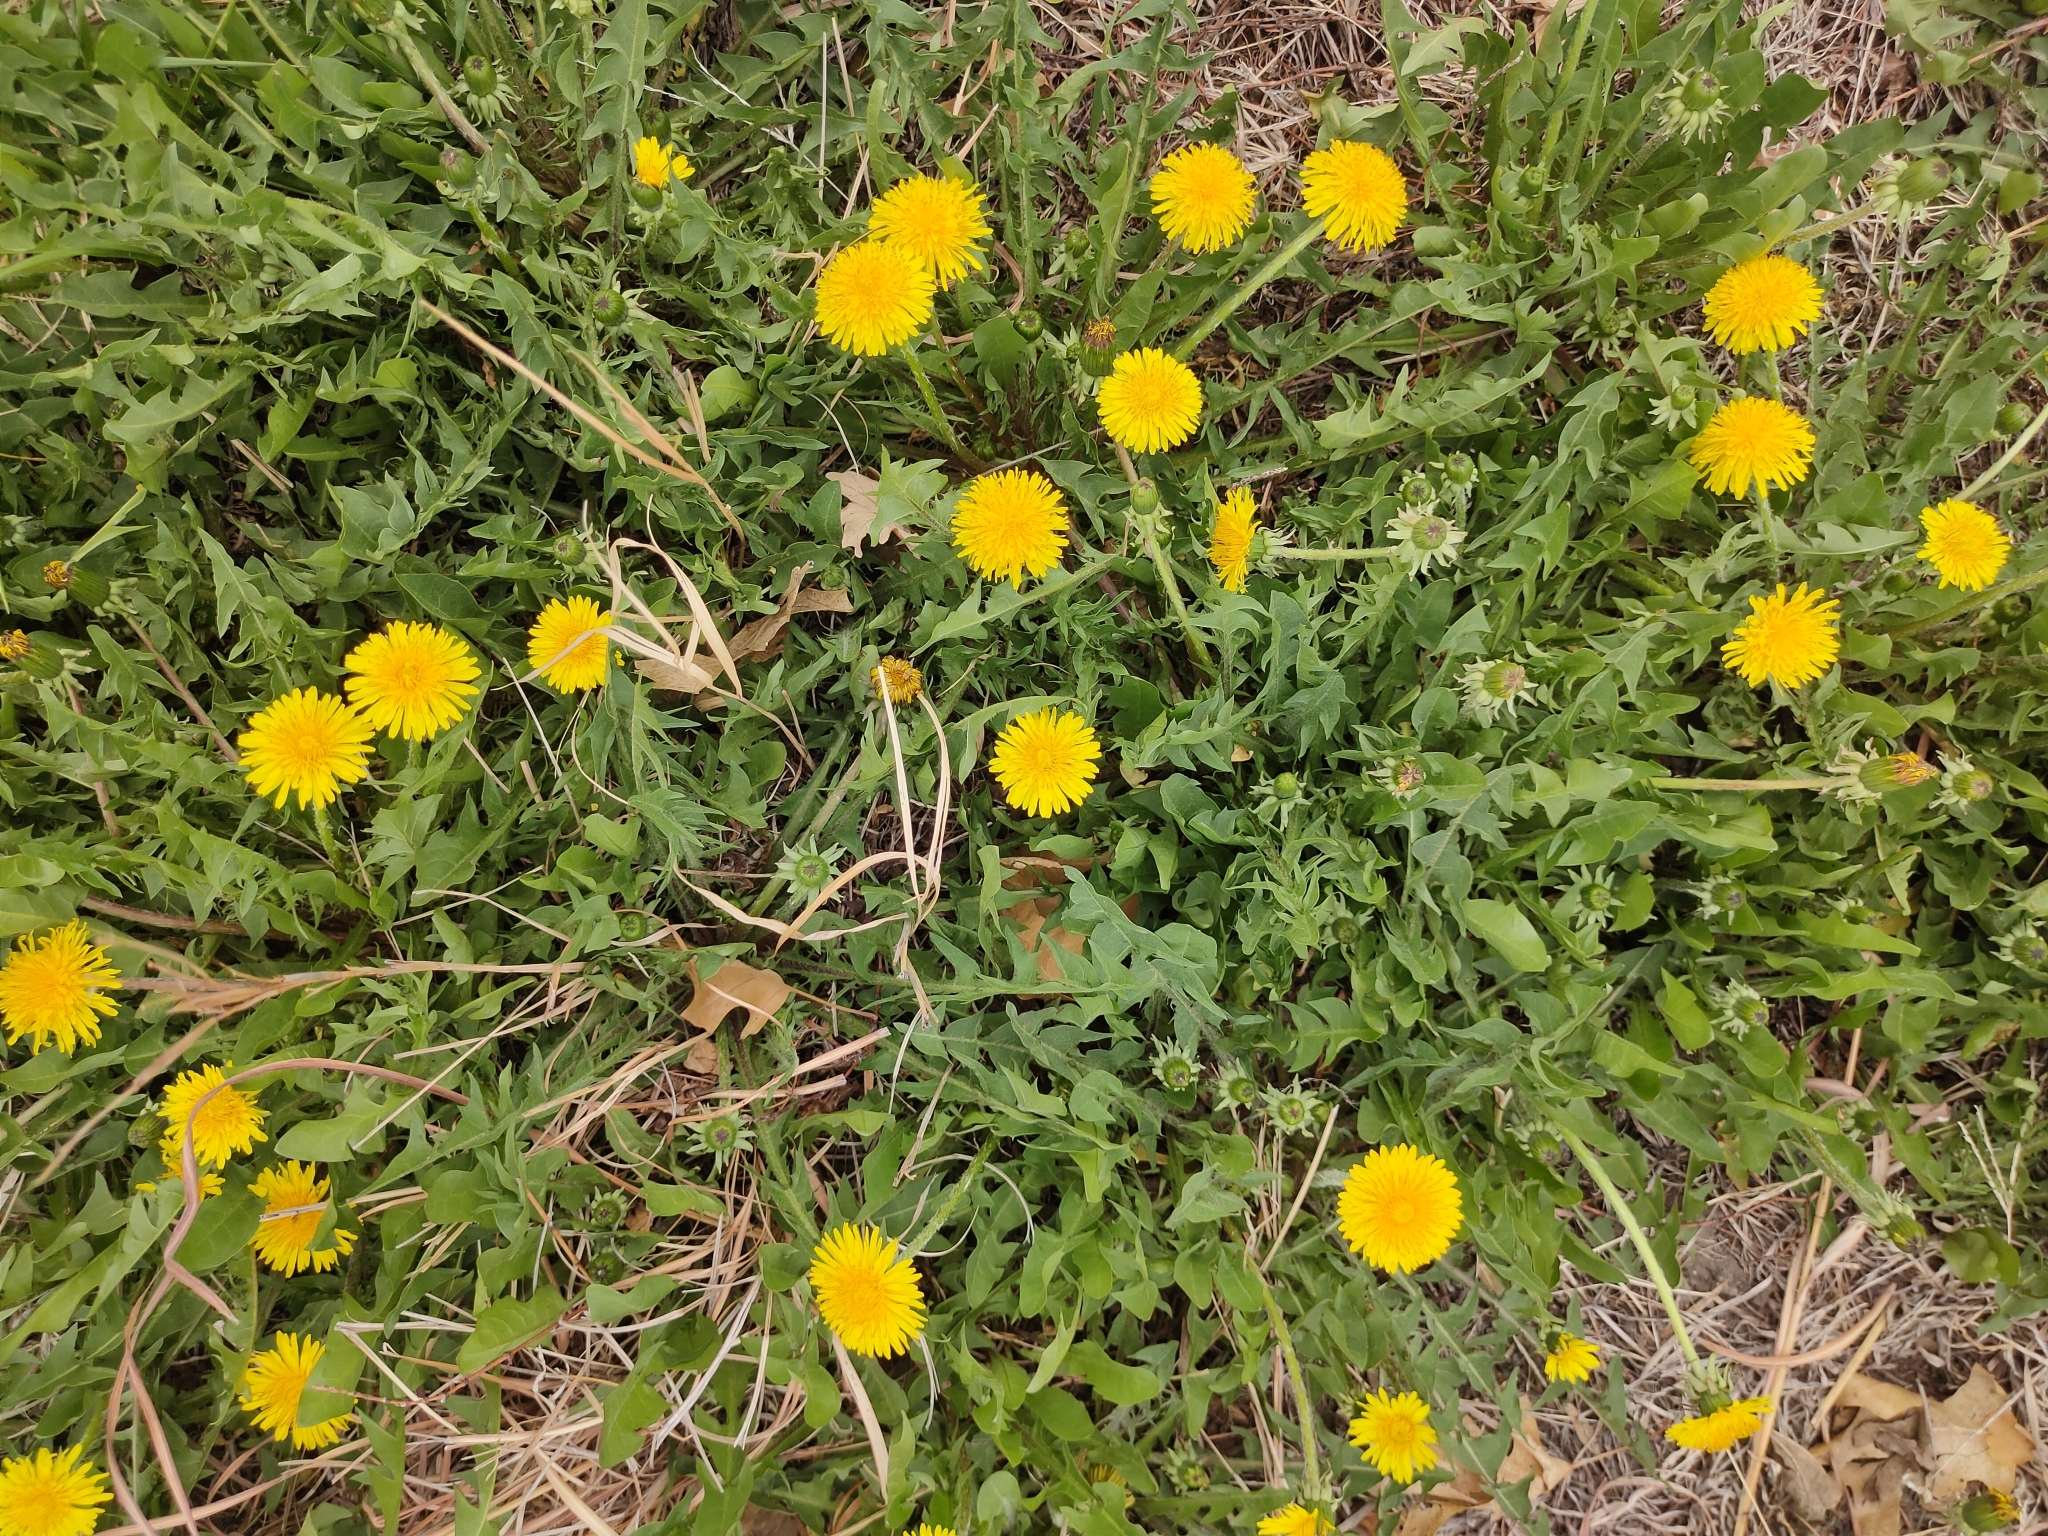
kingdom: Plantae
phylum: Tracheophyta
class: Magnoliopsida
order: Asterales
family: Asteraceae
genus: Taraxacum
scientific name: Taraxacum
